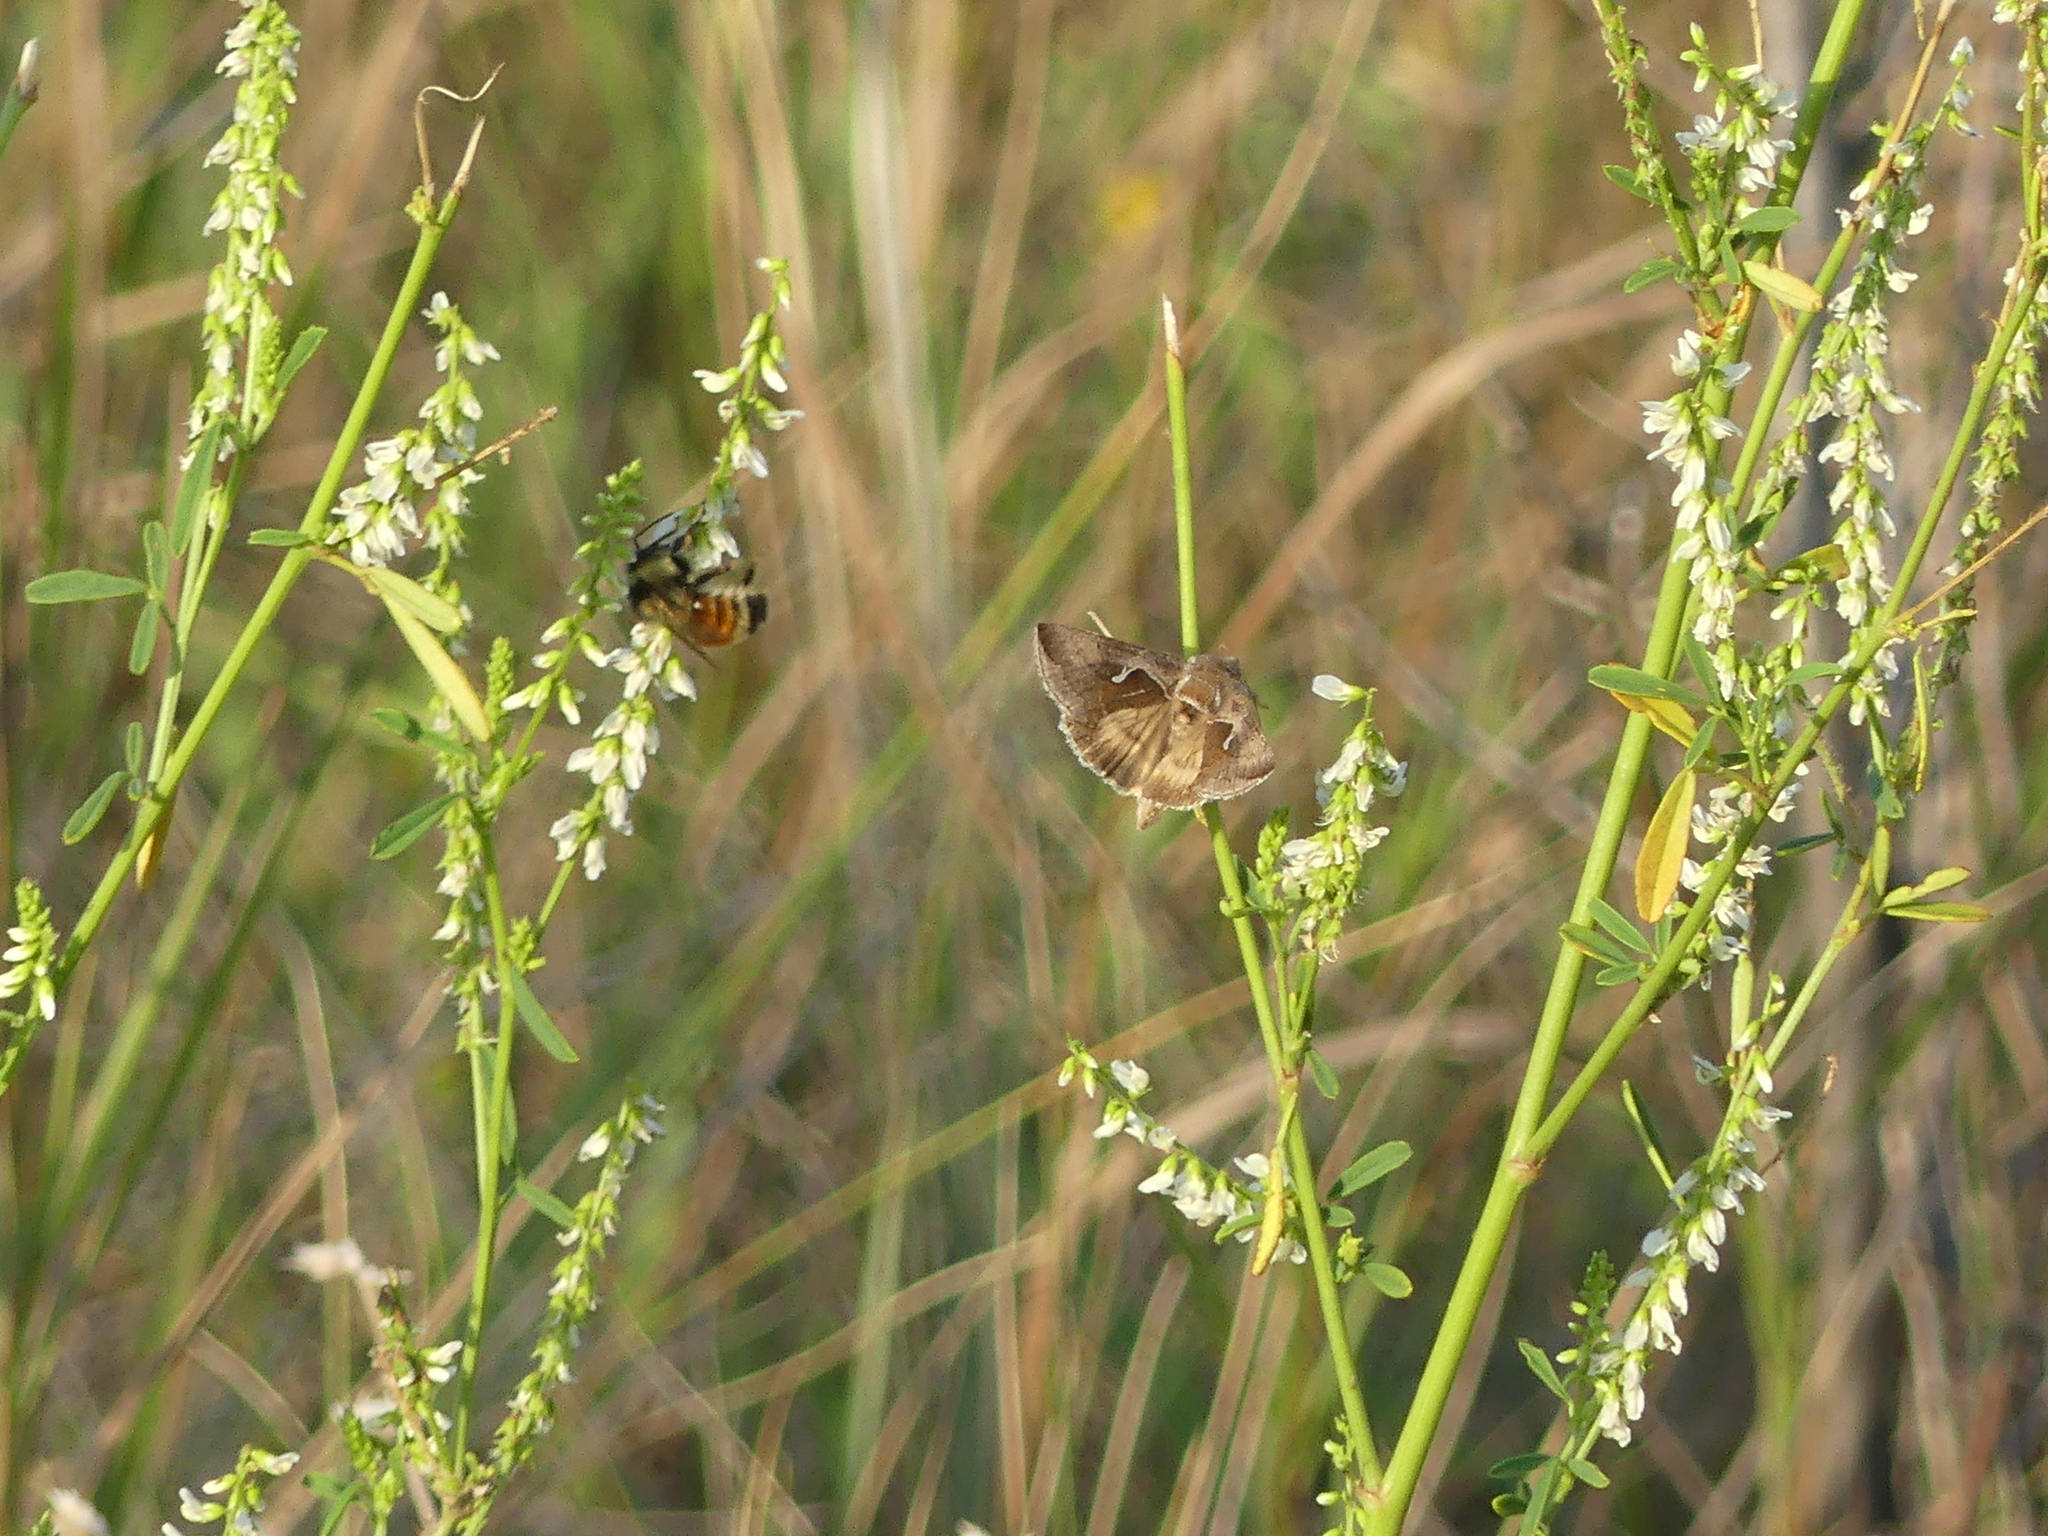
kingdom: Animalia
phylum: Arthropoda
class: Insecta
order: Lepidoptera
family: Noctuidae
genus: Anagrapha
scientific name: Anagrapha falcifera
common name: Celery looper
